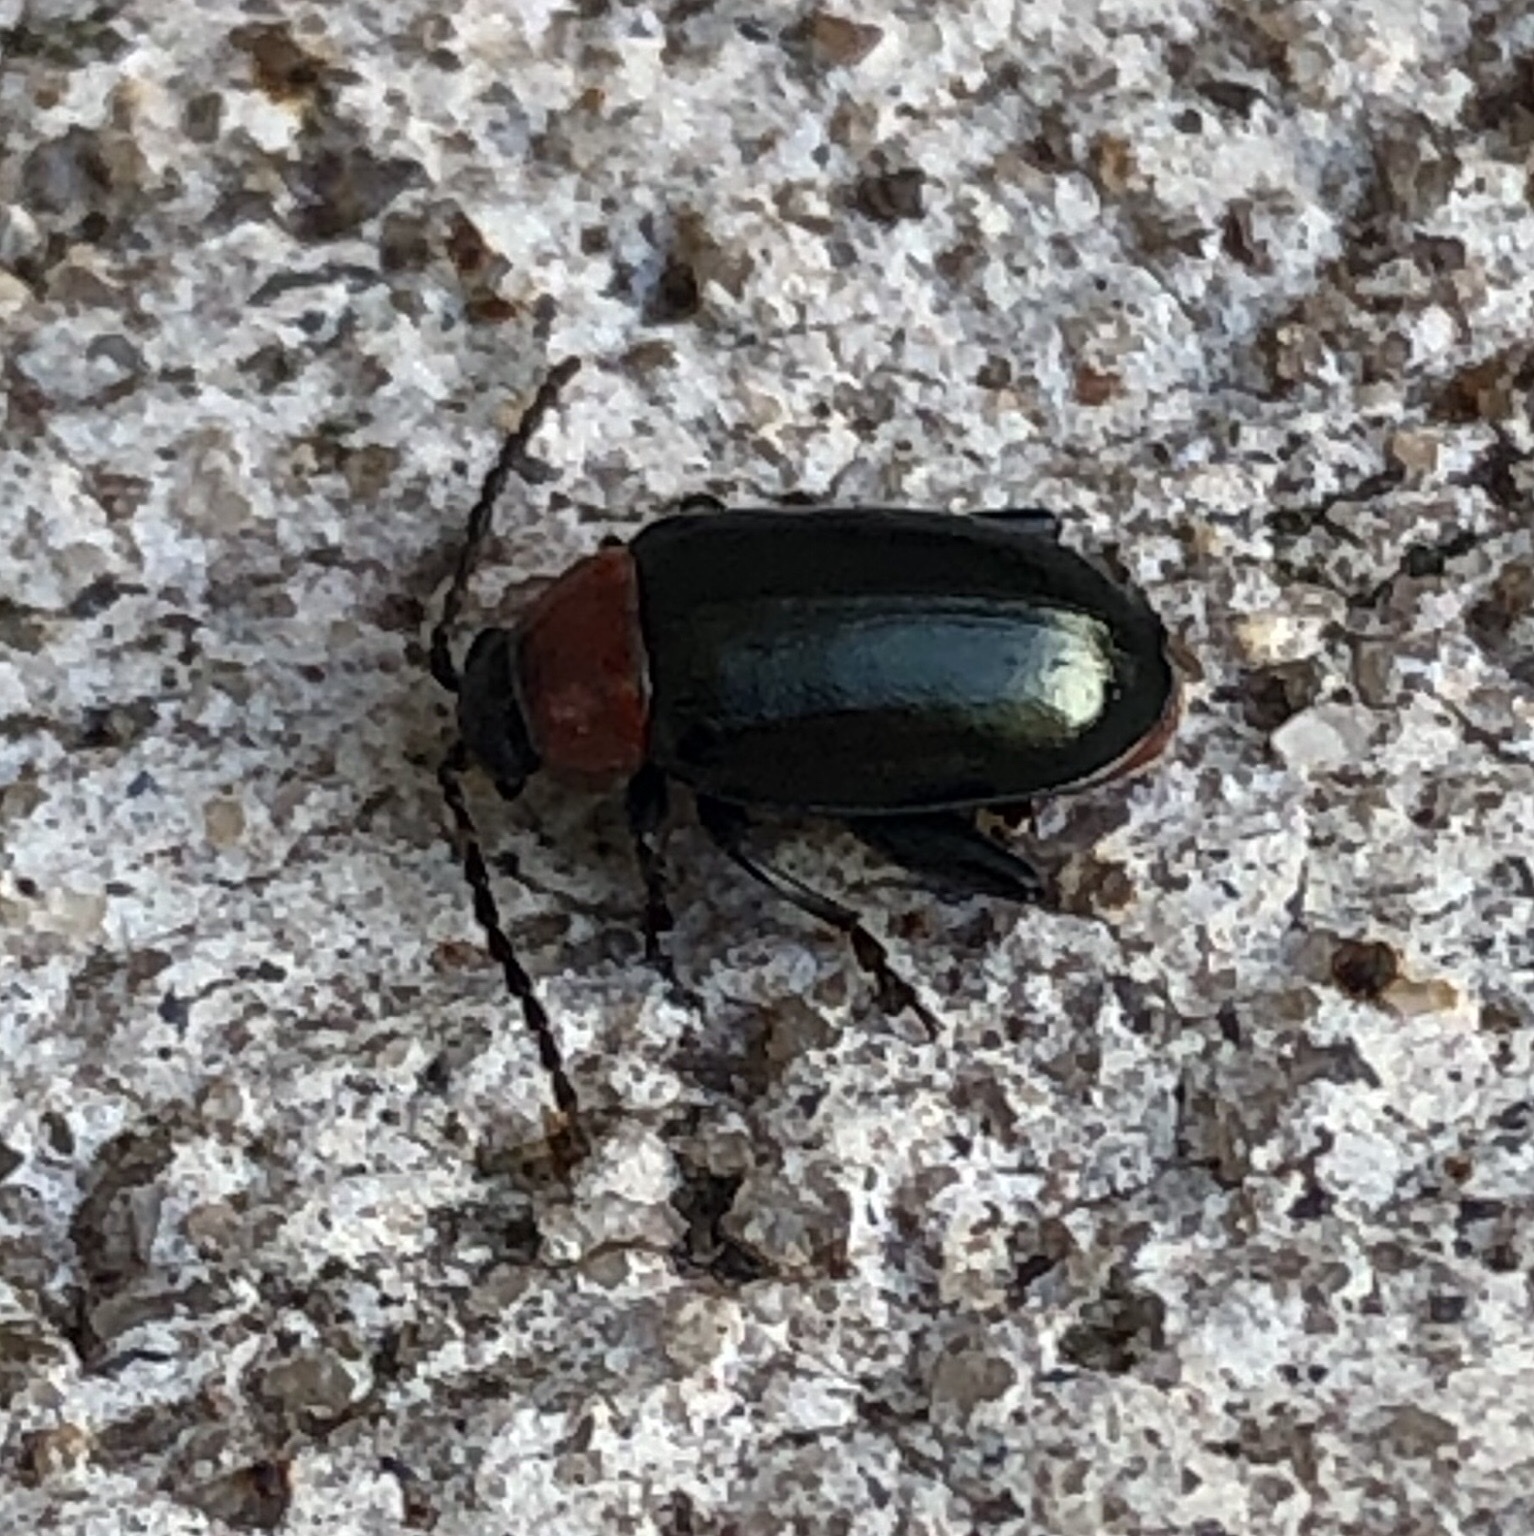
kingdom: Animalia
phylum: Arthropoda
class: Insecta
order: Coleoptera
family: Chrysomelidae
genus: Disonycha
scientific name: Disonycha xanthomelas
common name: Spinach flea beetle
